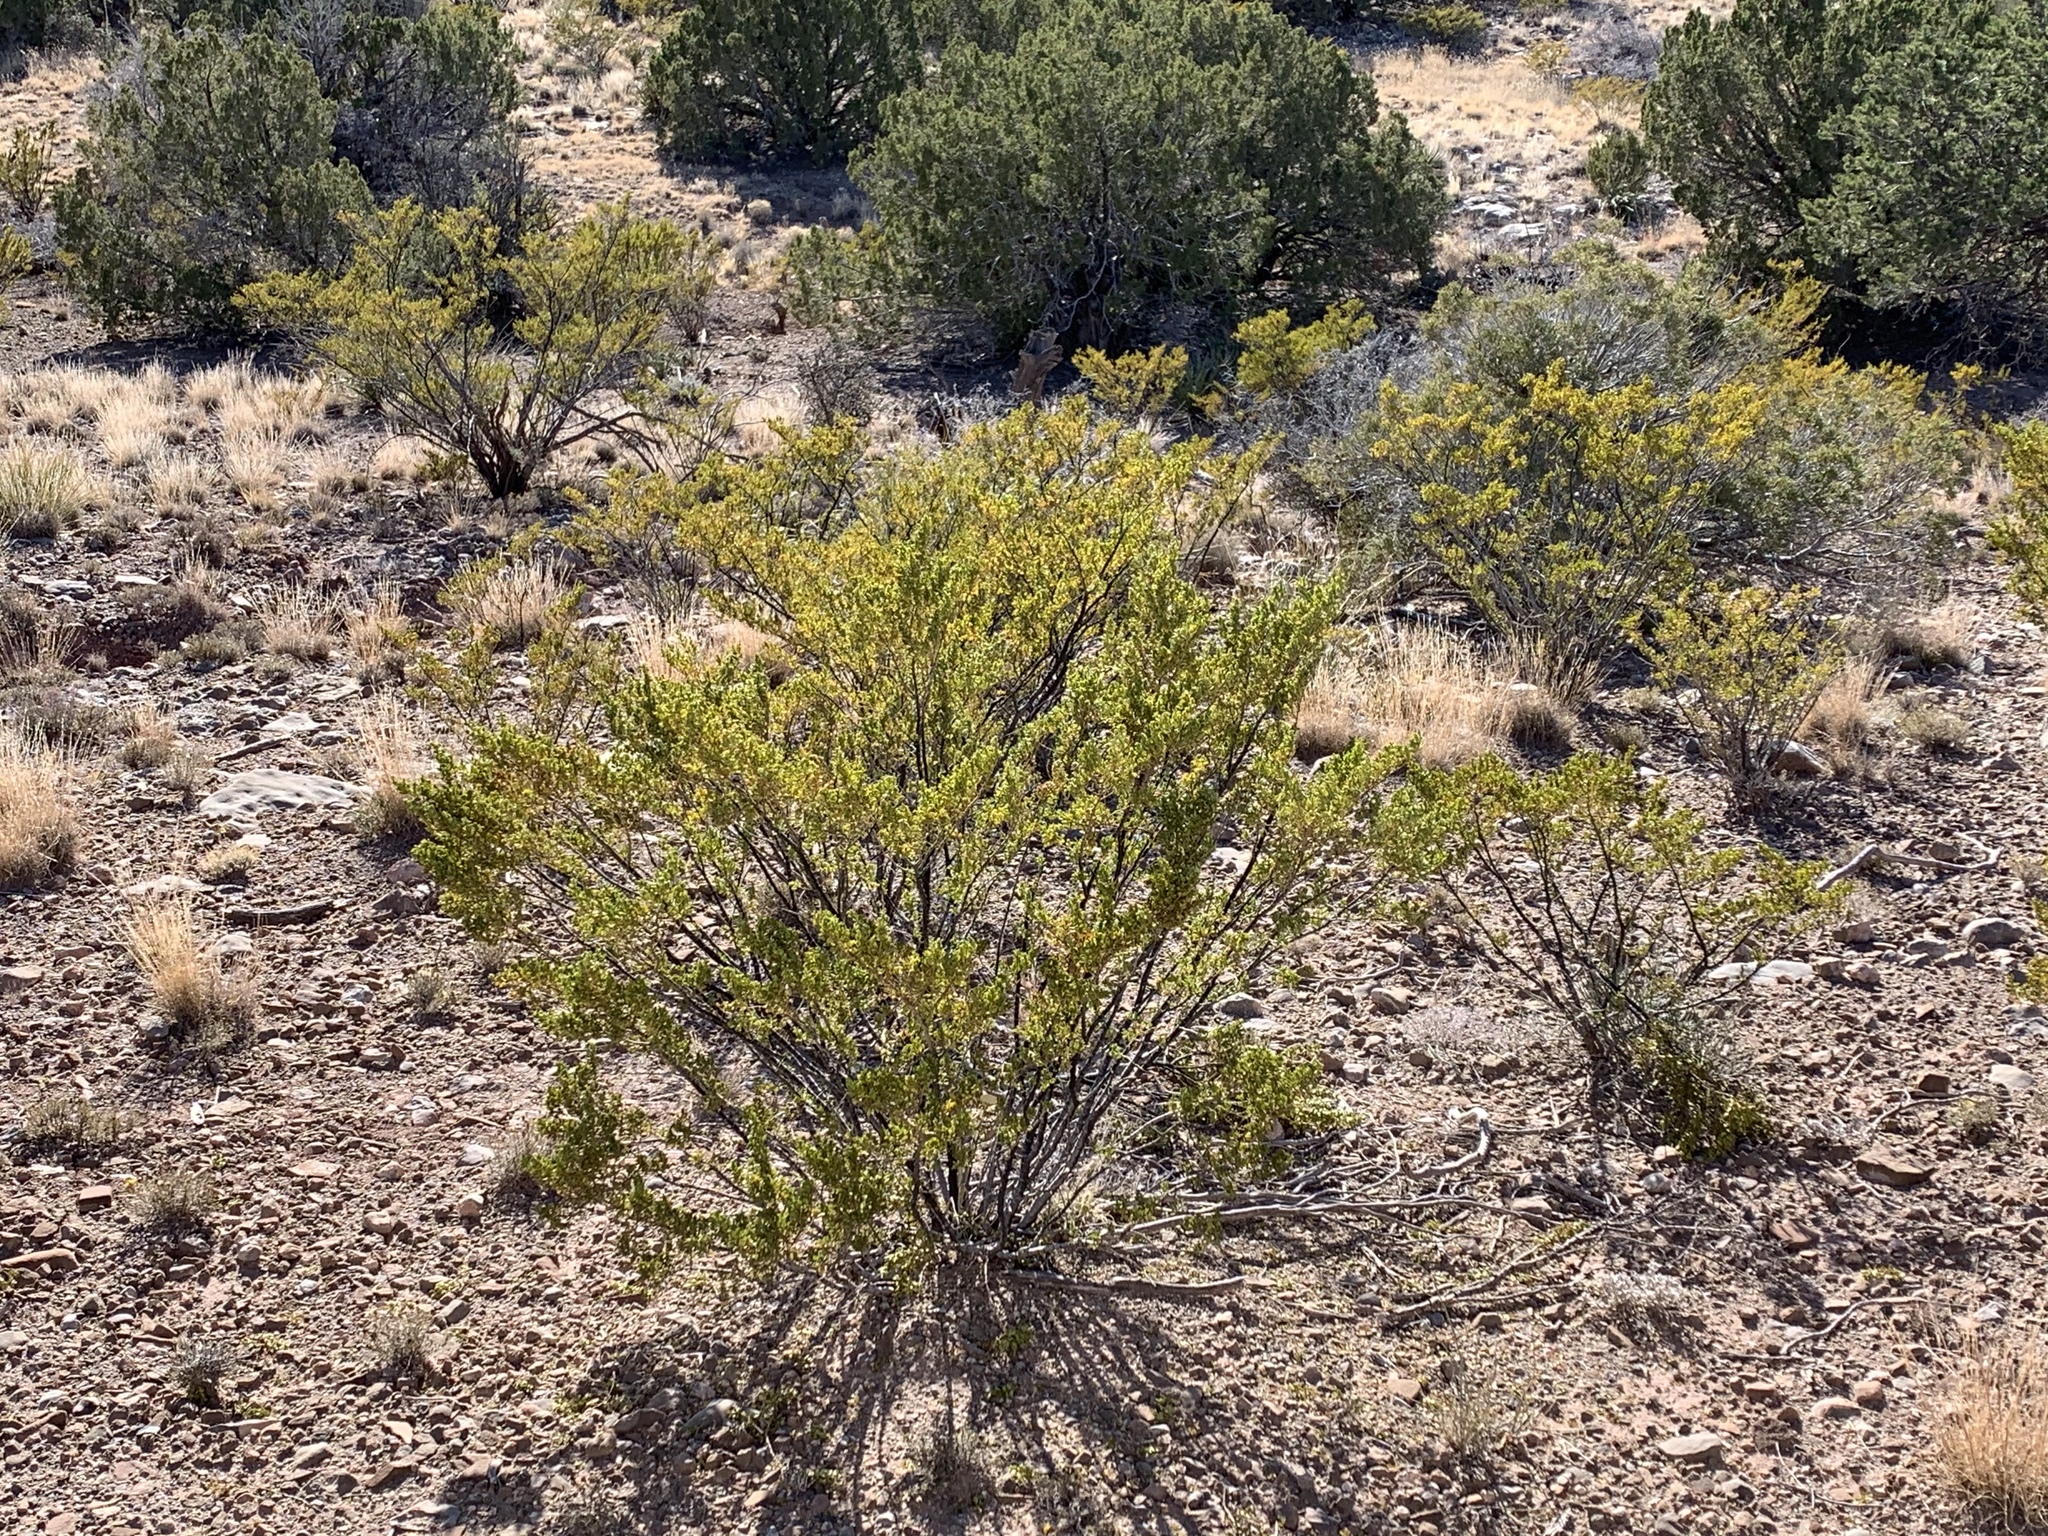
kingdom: Plantae
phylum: Tracheophyta
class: Magnoliopsida
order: Zygophyllales
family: Zygophyllaceae
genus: Larrea
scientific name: Larrea tridentata
